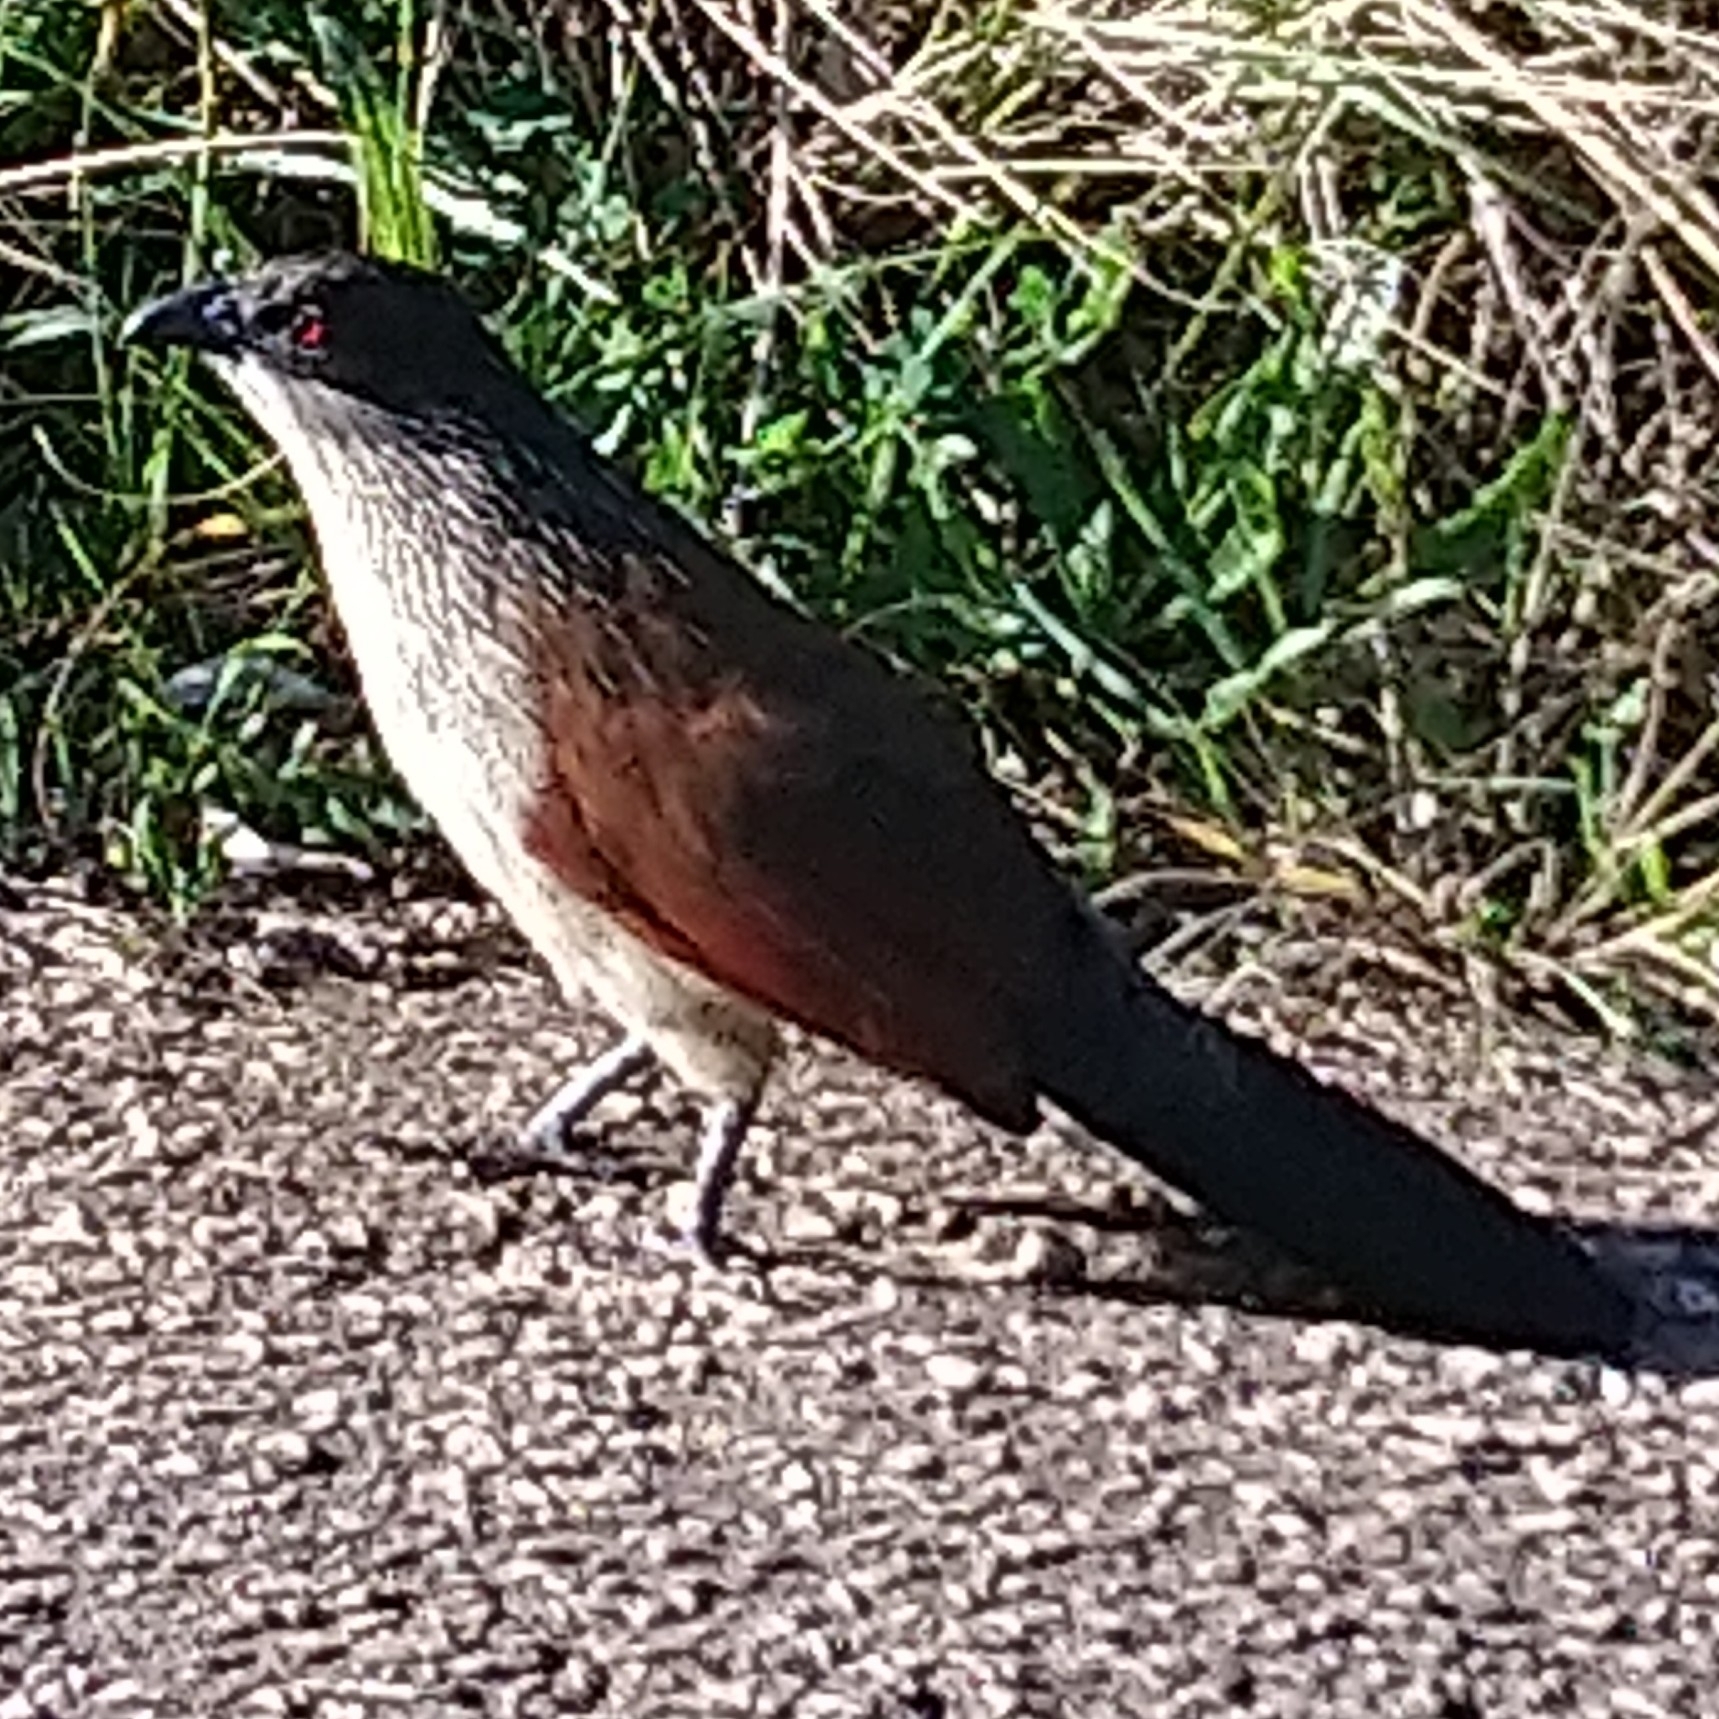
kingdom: Animalia
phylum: Chordata
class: Aves
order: Cuculiformes
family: Cuculidae
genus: Centropus
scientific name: Centropus superciliosus
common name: White-browed coucal
